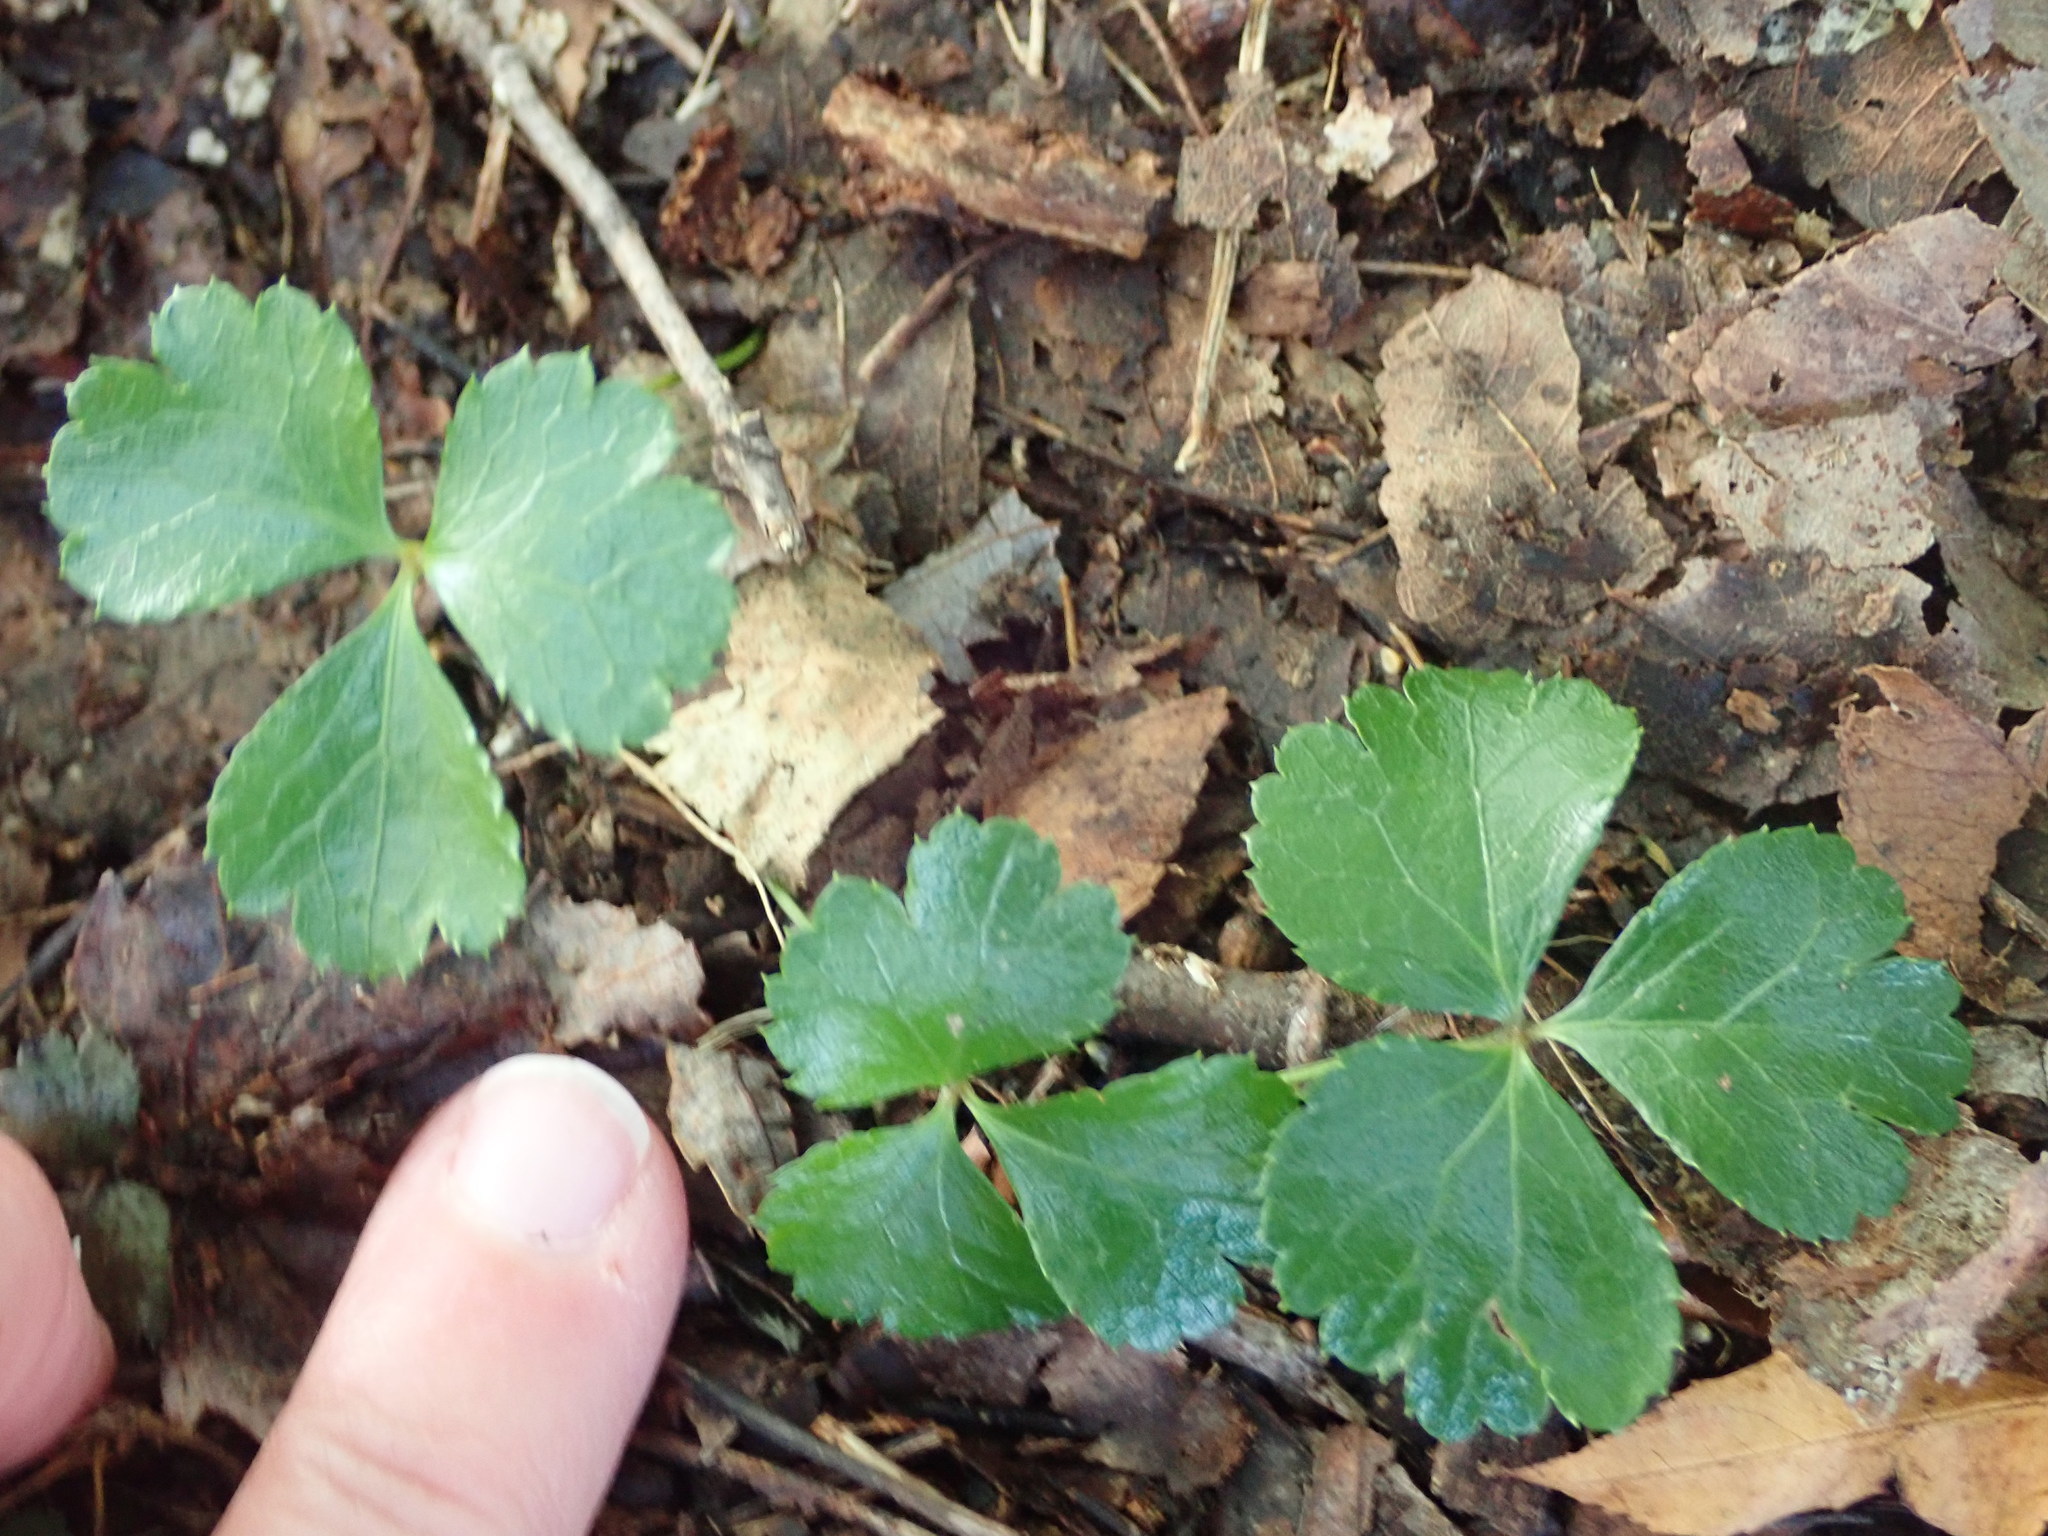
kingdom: Plantae
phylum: Tracheophyta
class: Magnoliopsida
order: Ranunculales
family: Ranunculaceae
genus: Coptis
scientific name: Coptis trifolia
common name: Canker-root
